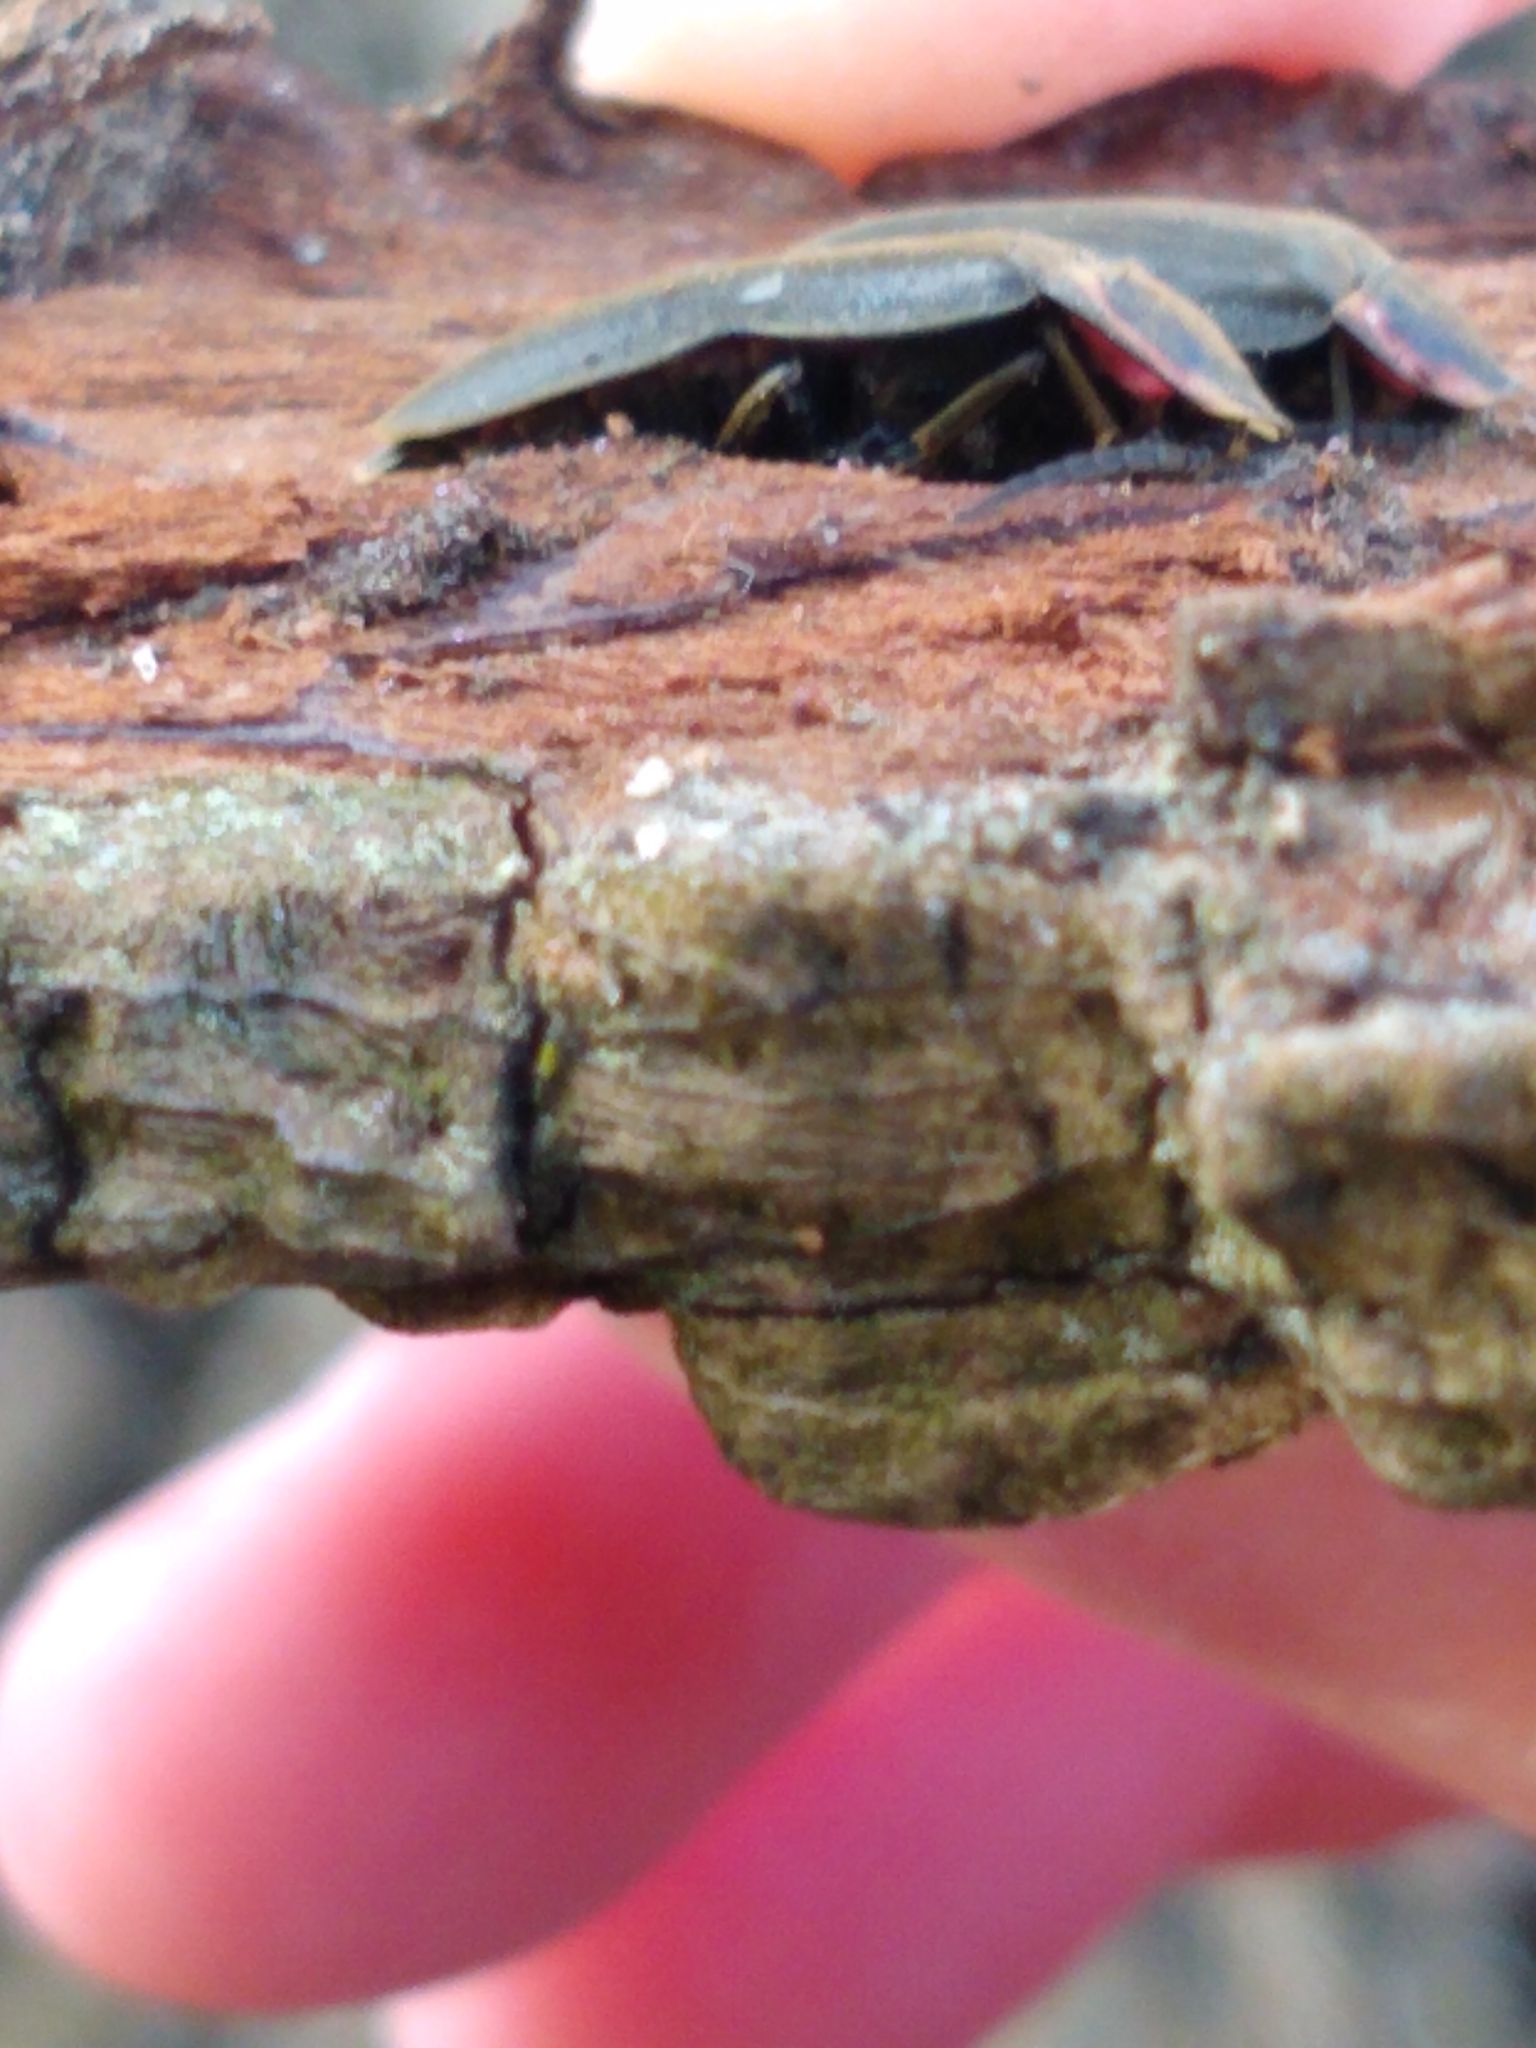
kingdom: Animalia
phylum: Arthropoda
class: Insecta
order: Coleoptera
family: Lampyridae
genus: Photinus
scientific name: Photinus corrusca
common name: Winter firefly
